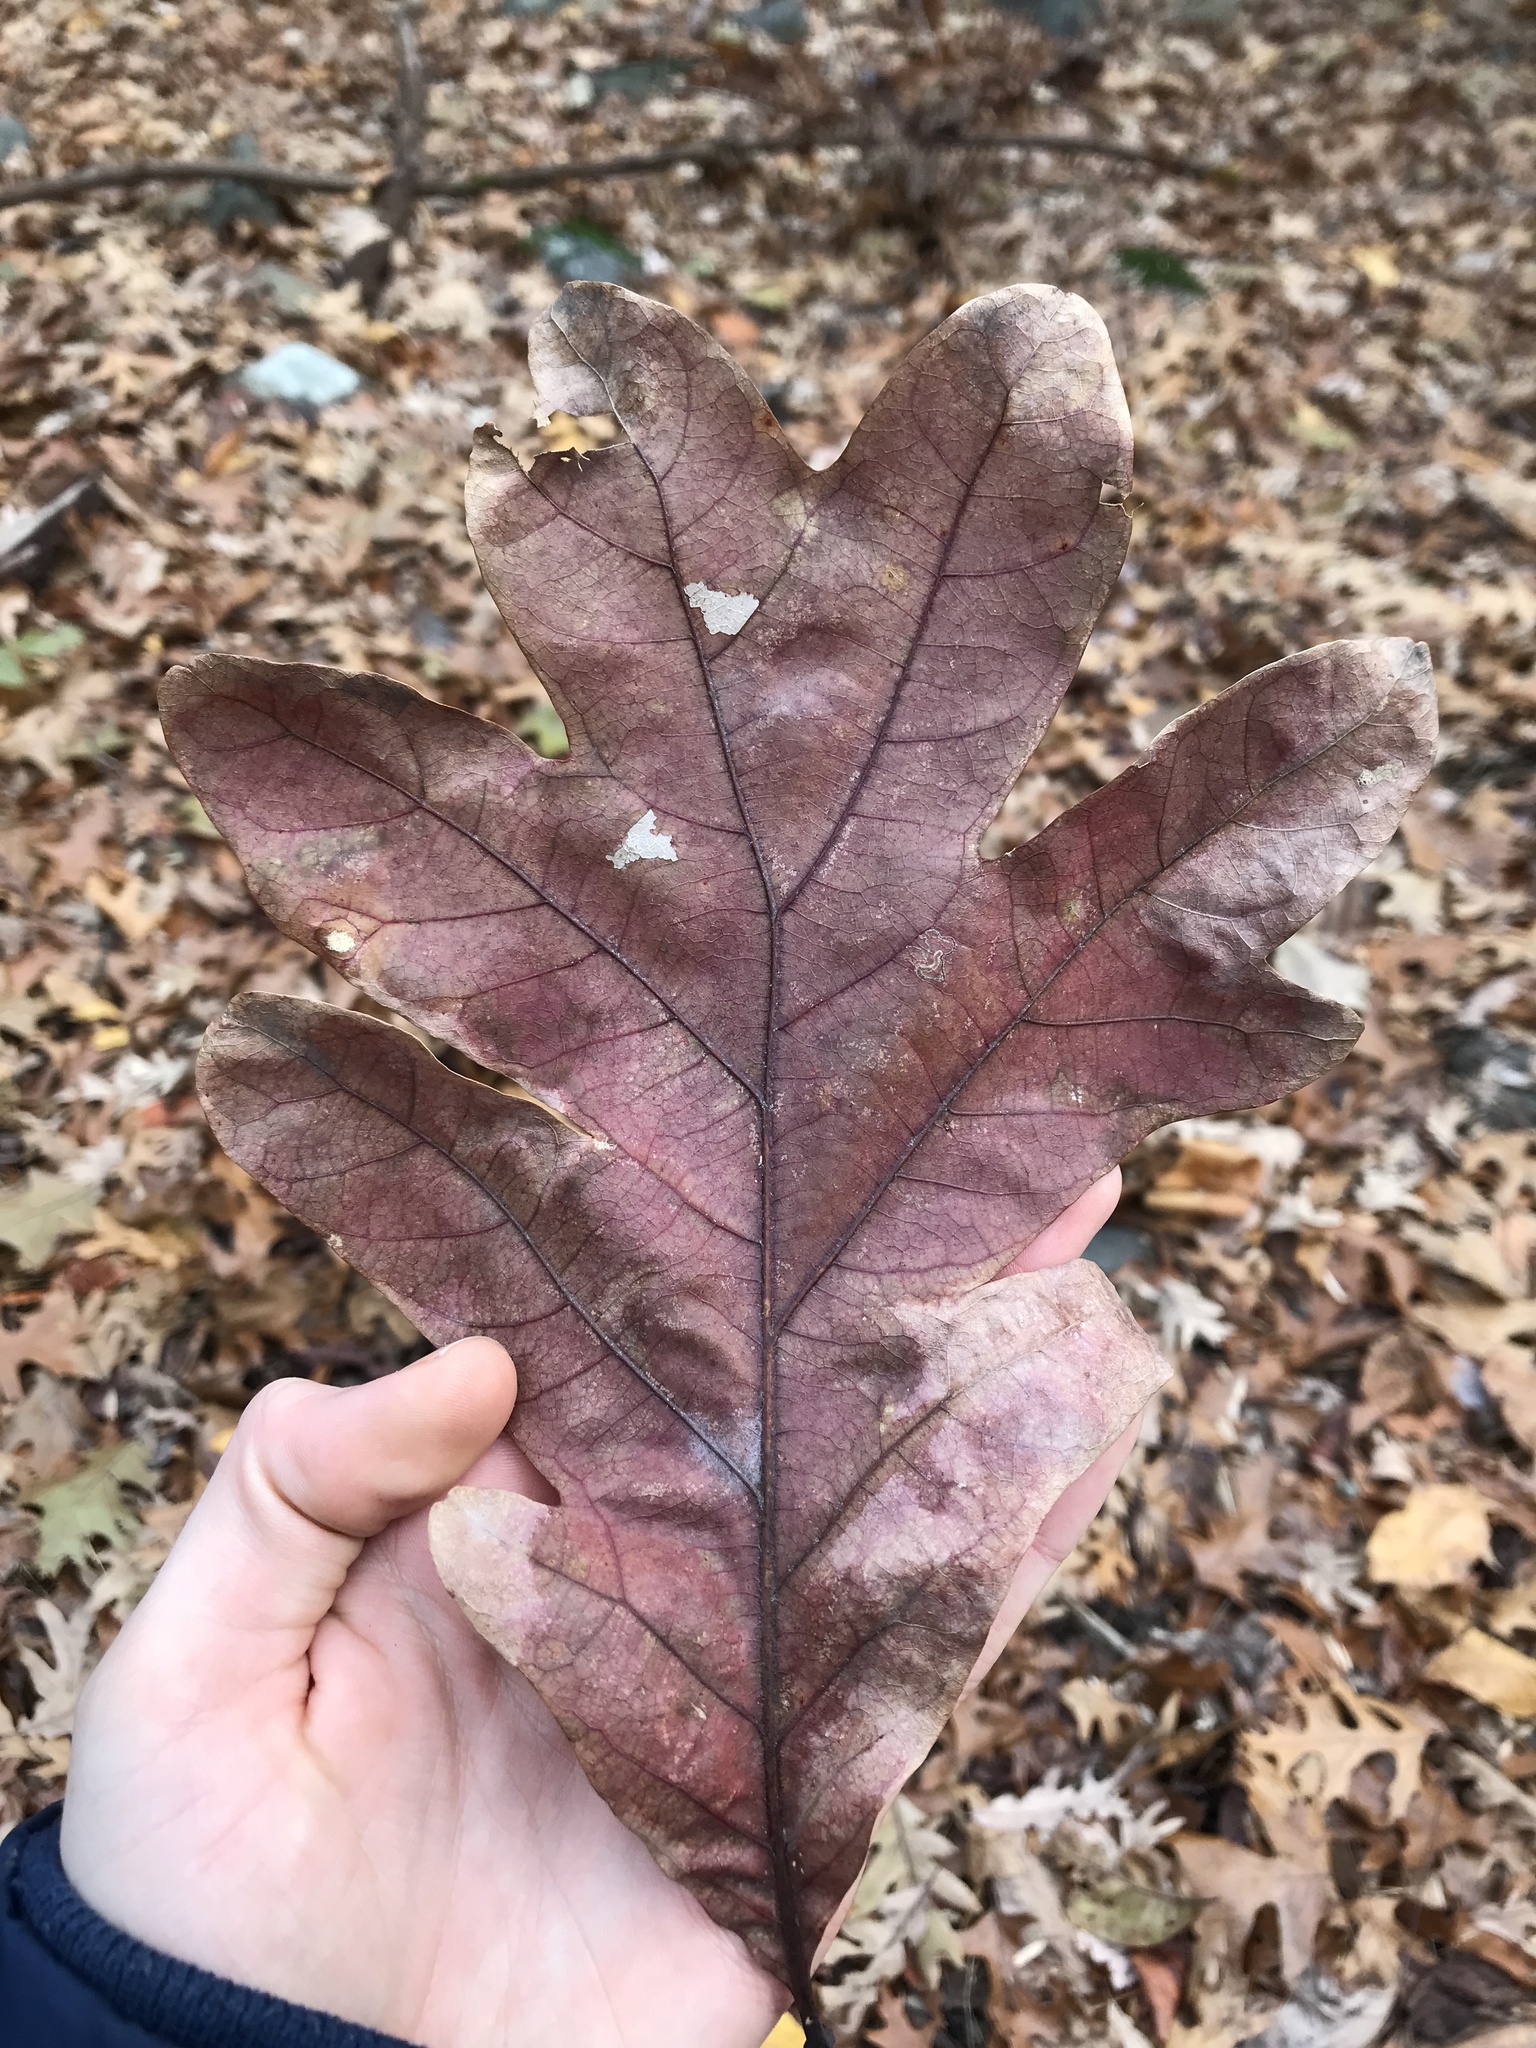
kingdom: Plantae
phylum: Tracheophyta
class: Magnoliopsida
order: Fagales
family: Fagaceae
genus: Quercus
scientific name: Quercus alba
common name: White oak
